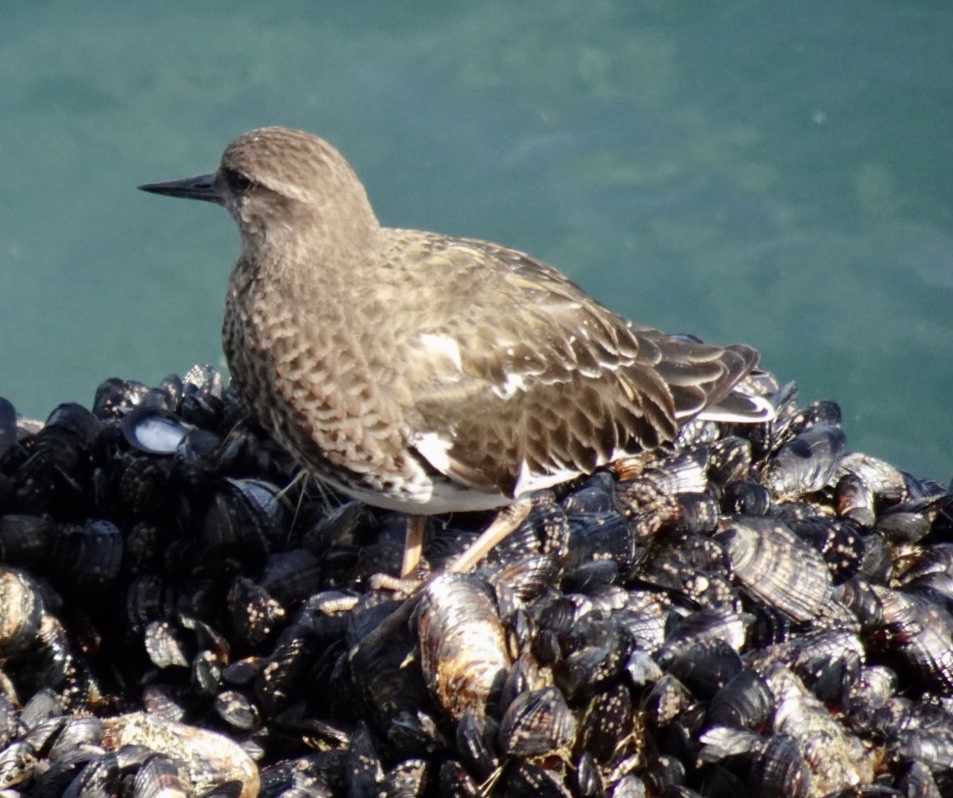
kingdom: Animalia
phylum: Chordata
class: Aves
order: Charadriiformes
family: Scolopacidae
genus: Arenaria
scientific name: Arenaria melanocephala
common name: Black turnstone
